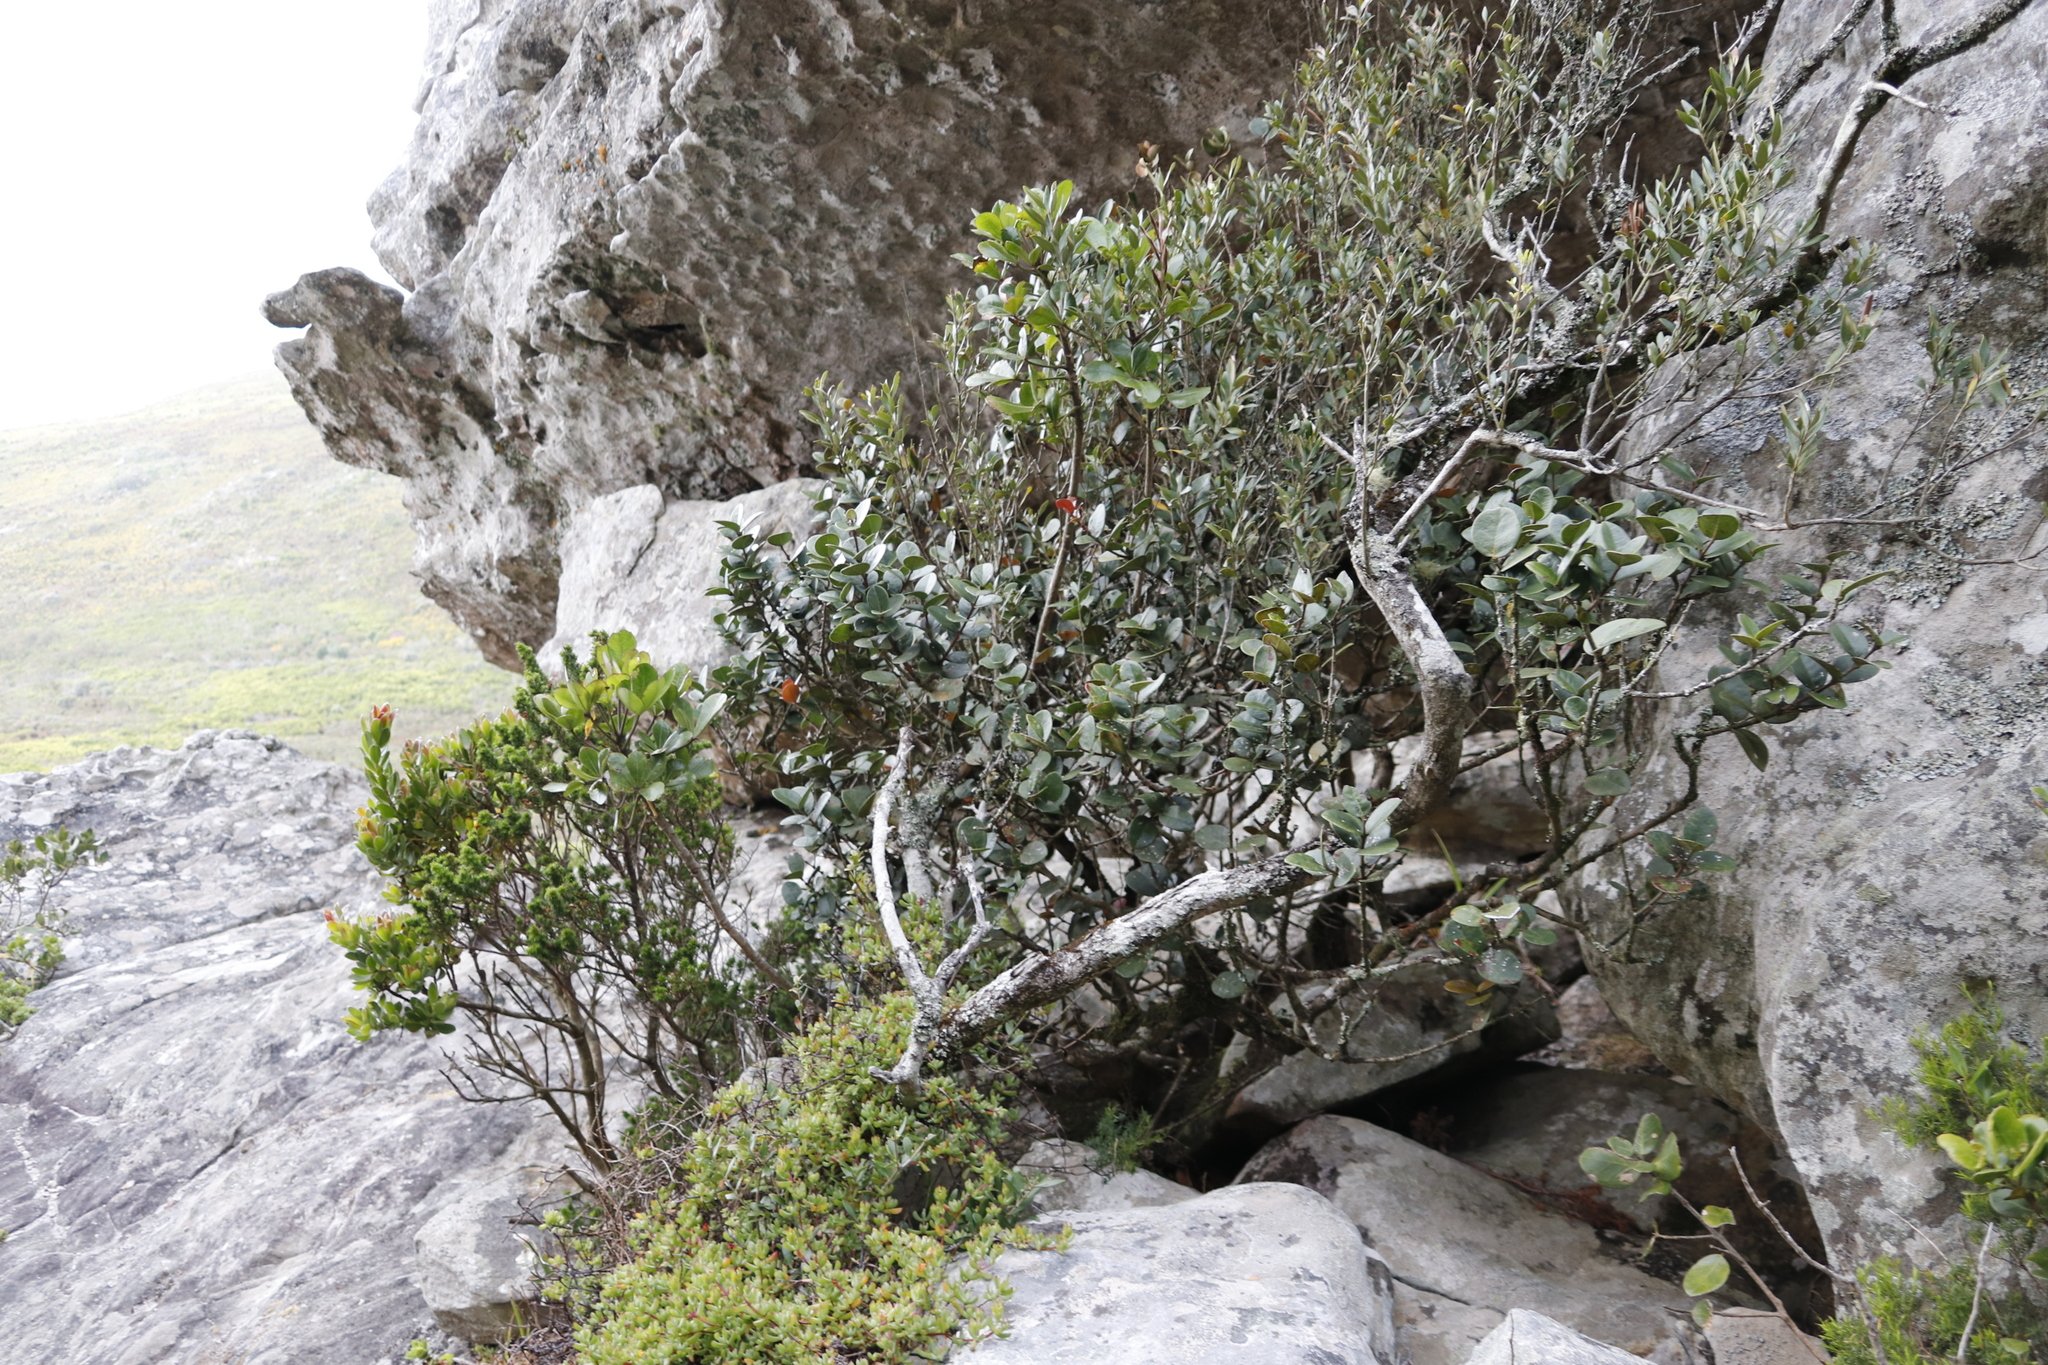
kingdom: Plantae
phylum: Tracheophyta
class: Magnoliopsida
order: Celastrales
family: Celastraceae
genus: Maurocenia
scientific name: Maurocenia frangula
